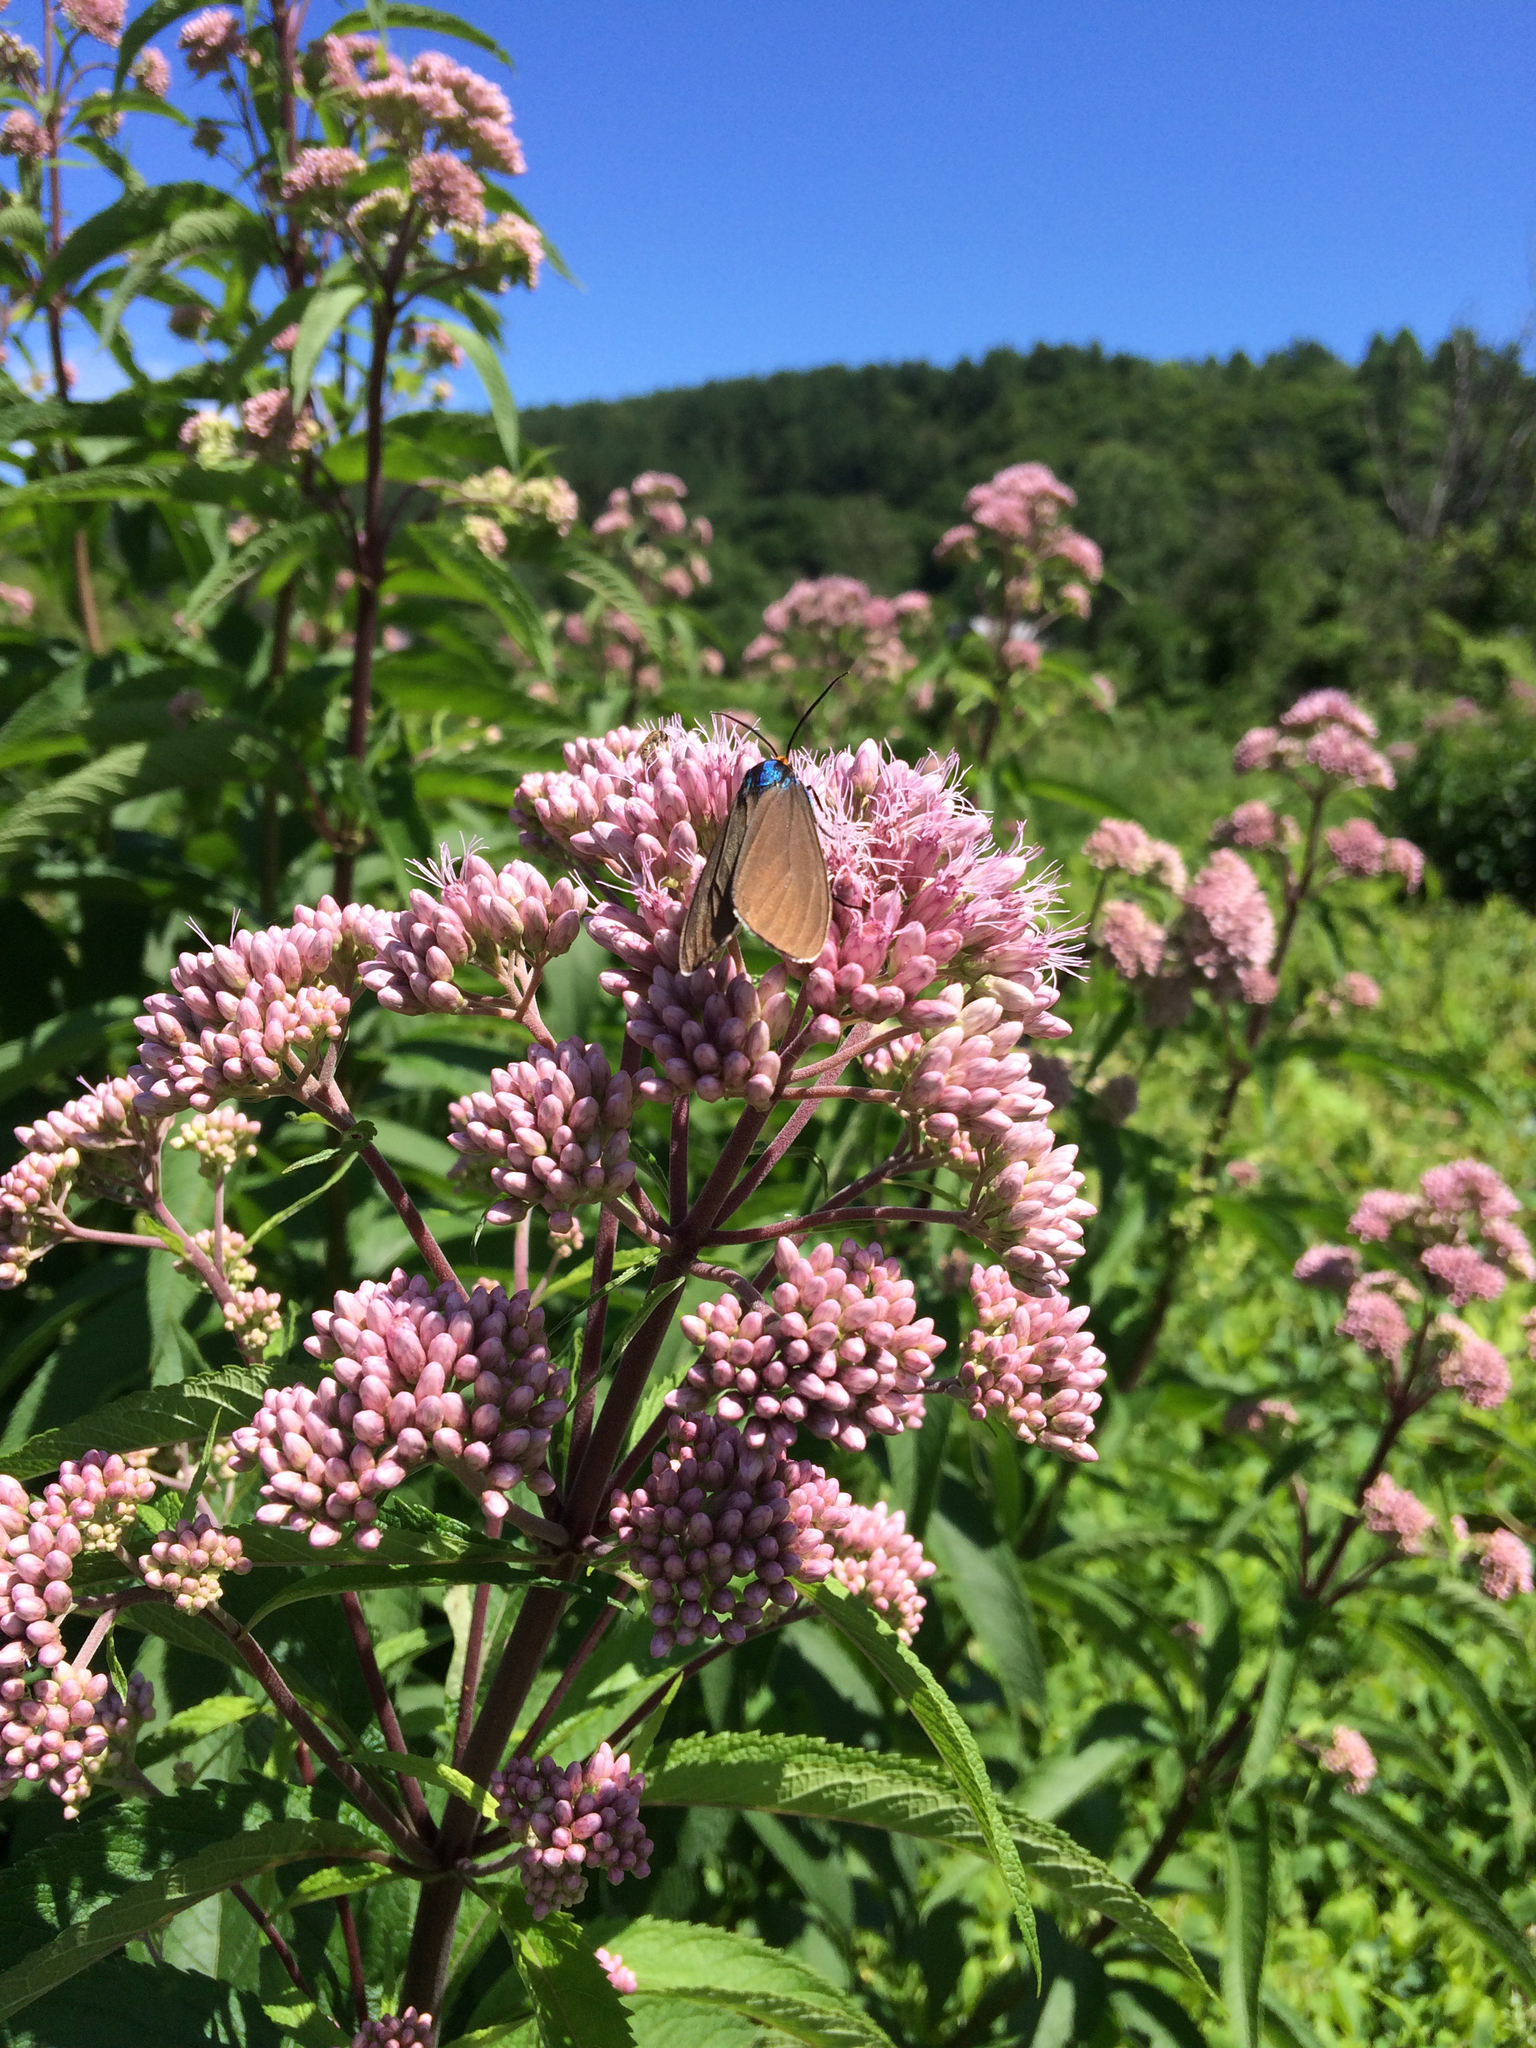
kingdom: Plantae
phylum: Tracheophyta
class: Magnoliopsida
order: Asterales
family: Asteraceae
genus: Eutrochium
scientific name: Eutrochium maculatum
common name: Spotted joe pye weed
